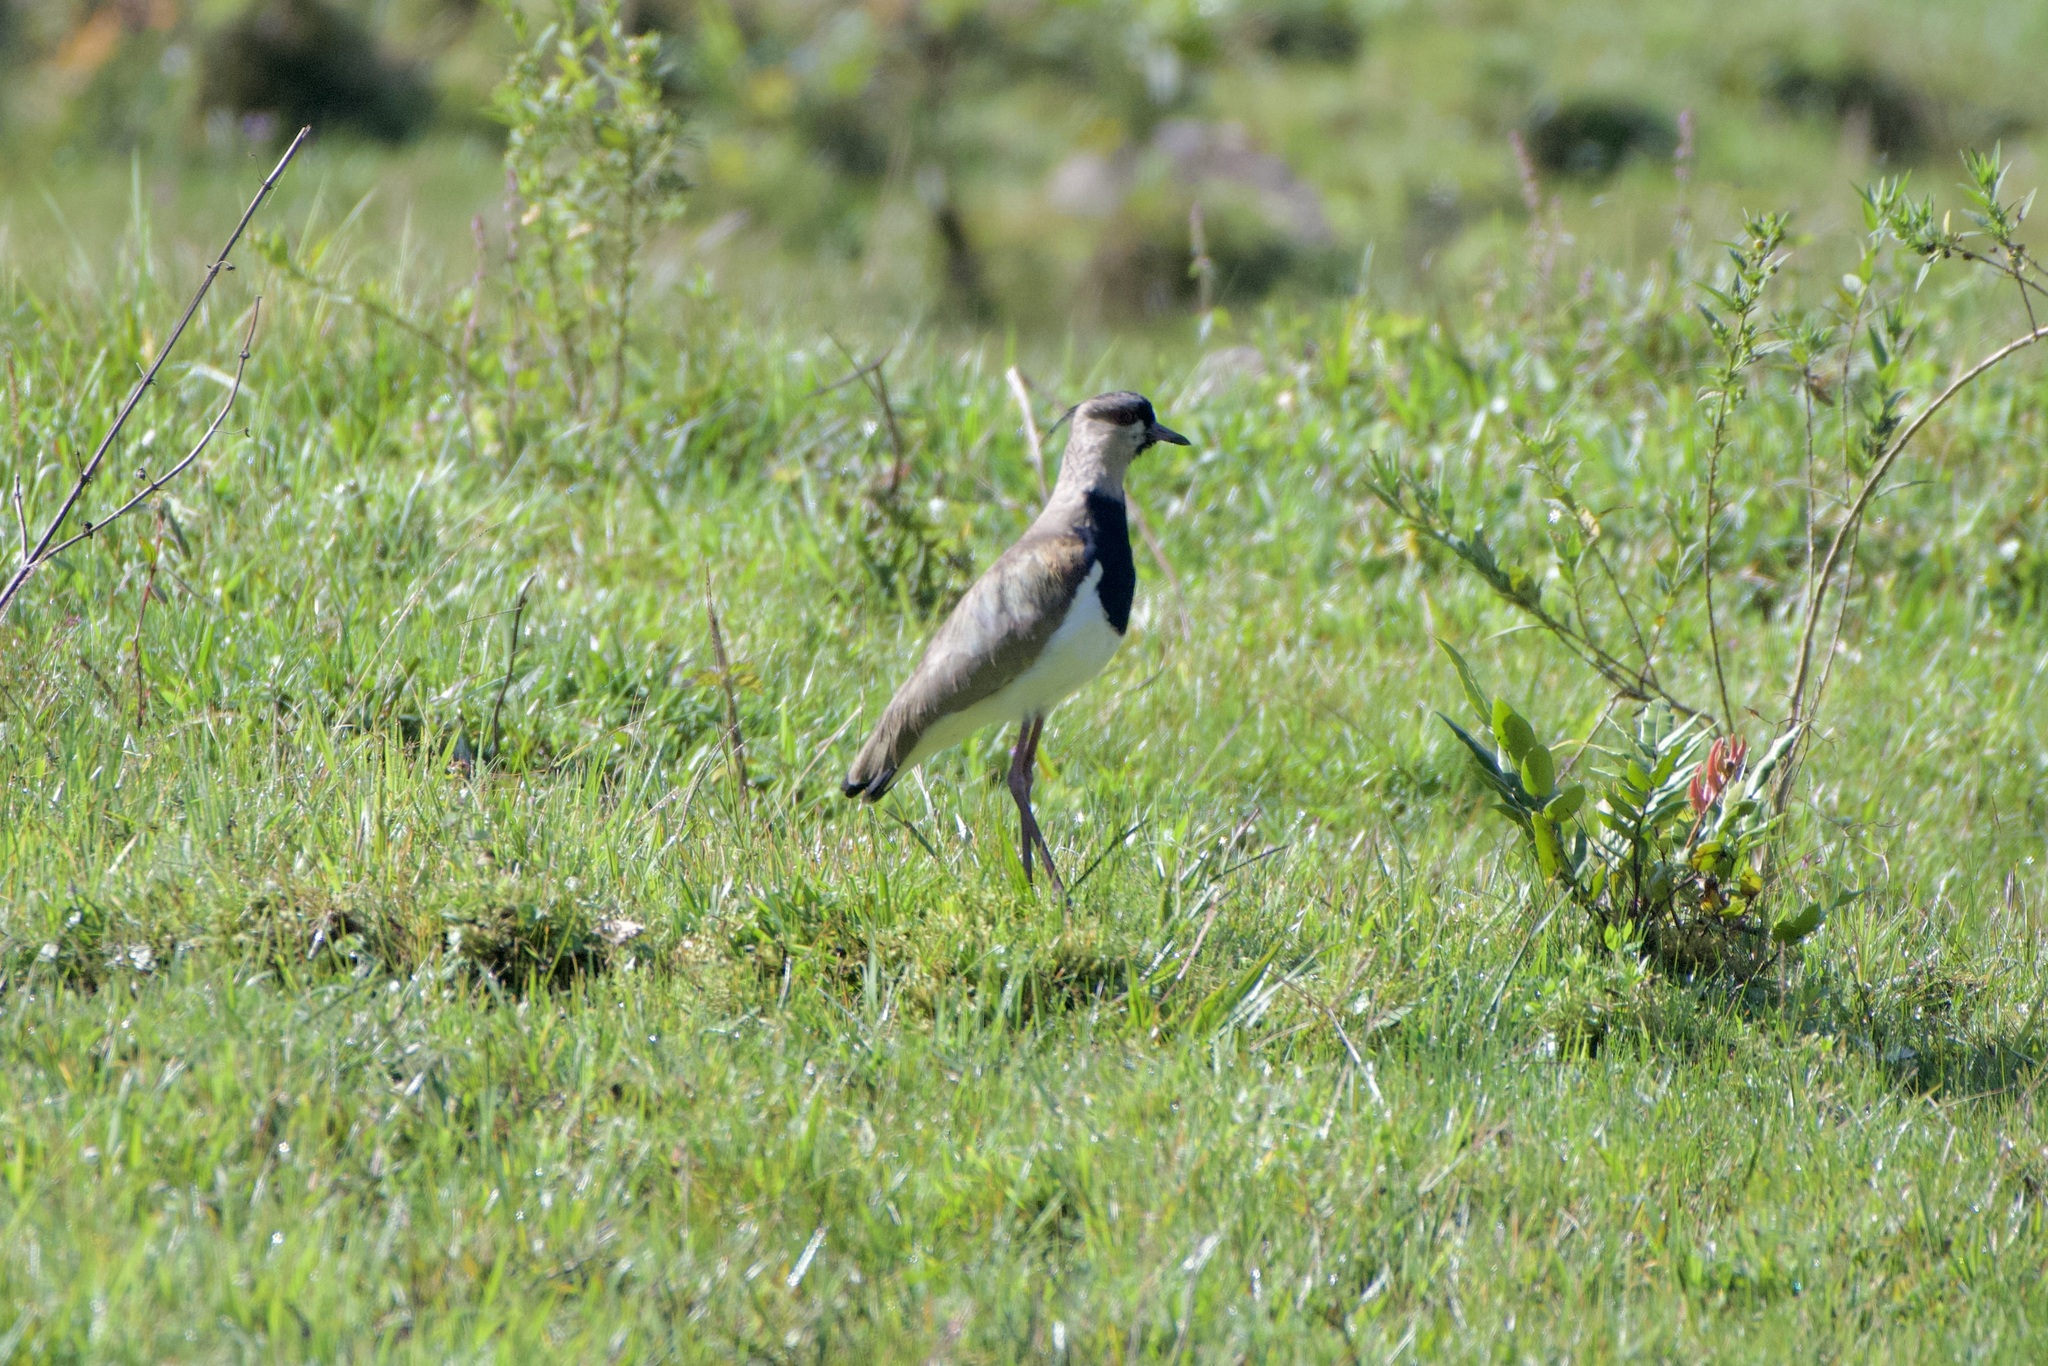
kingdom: Animalia
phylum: Chordata
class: Aves
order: Charadriiformes
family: Charadriidae
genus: Vanellus
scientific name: Vanellus chilensis
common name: Southern lapwing
